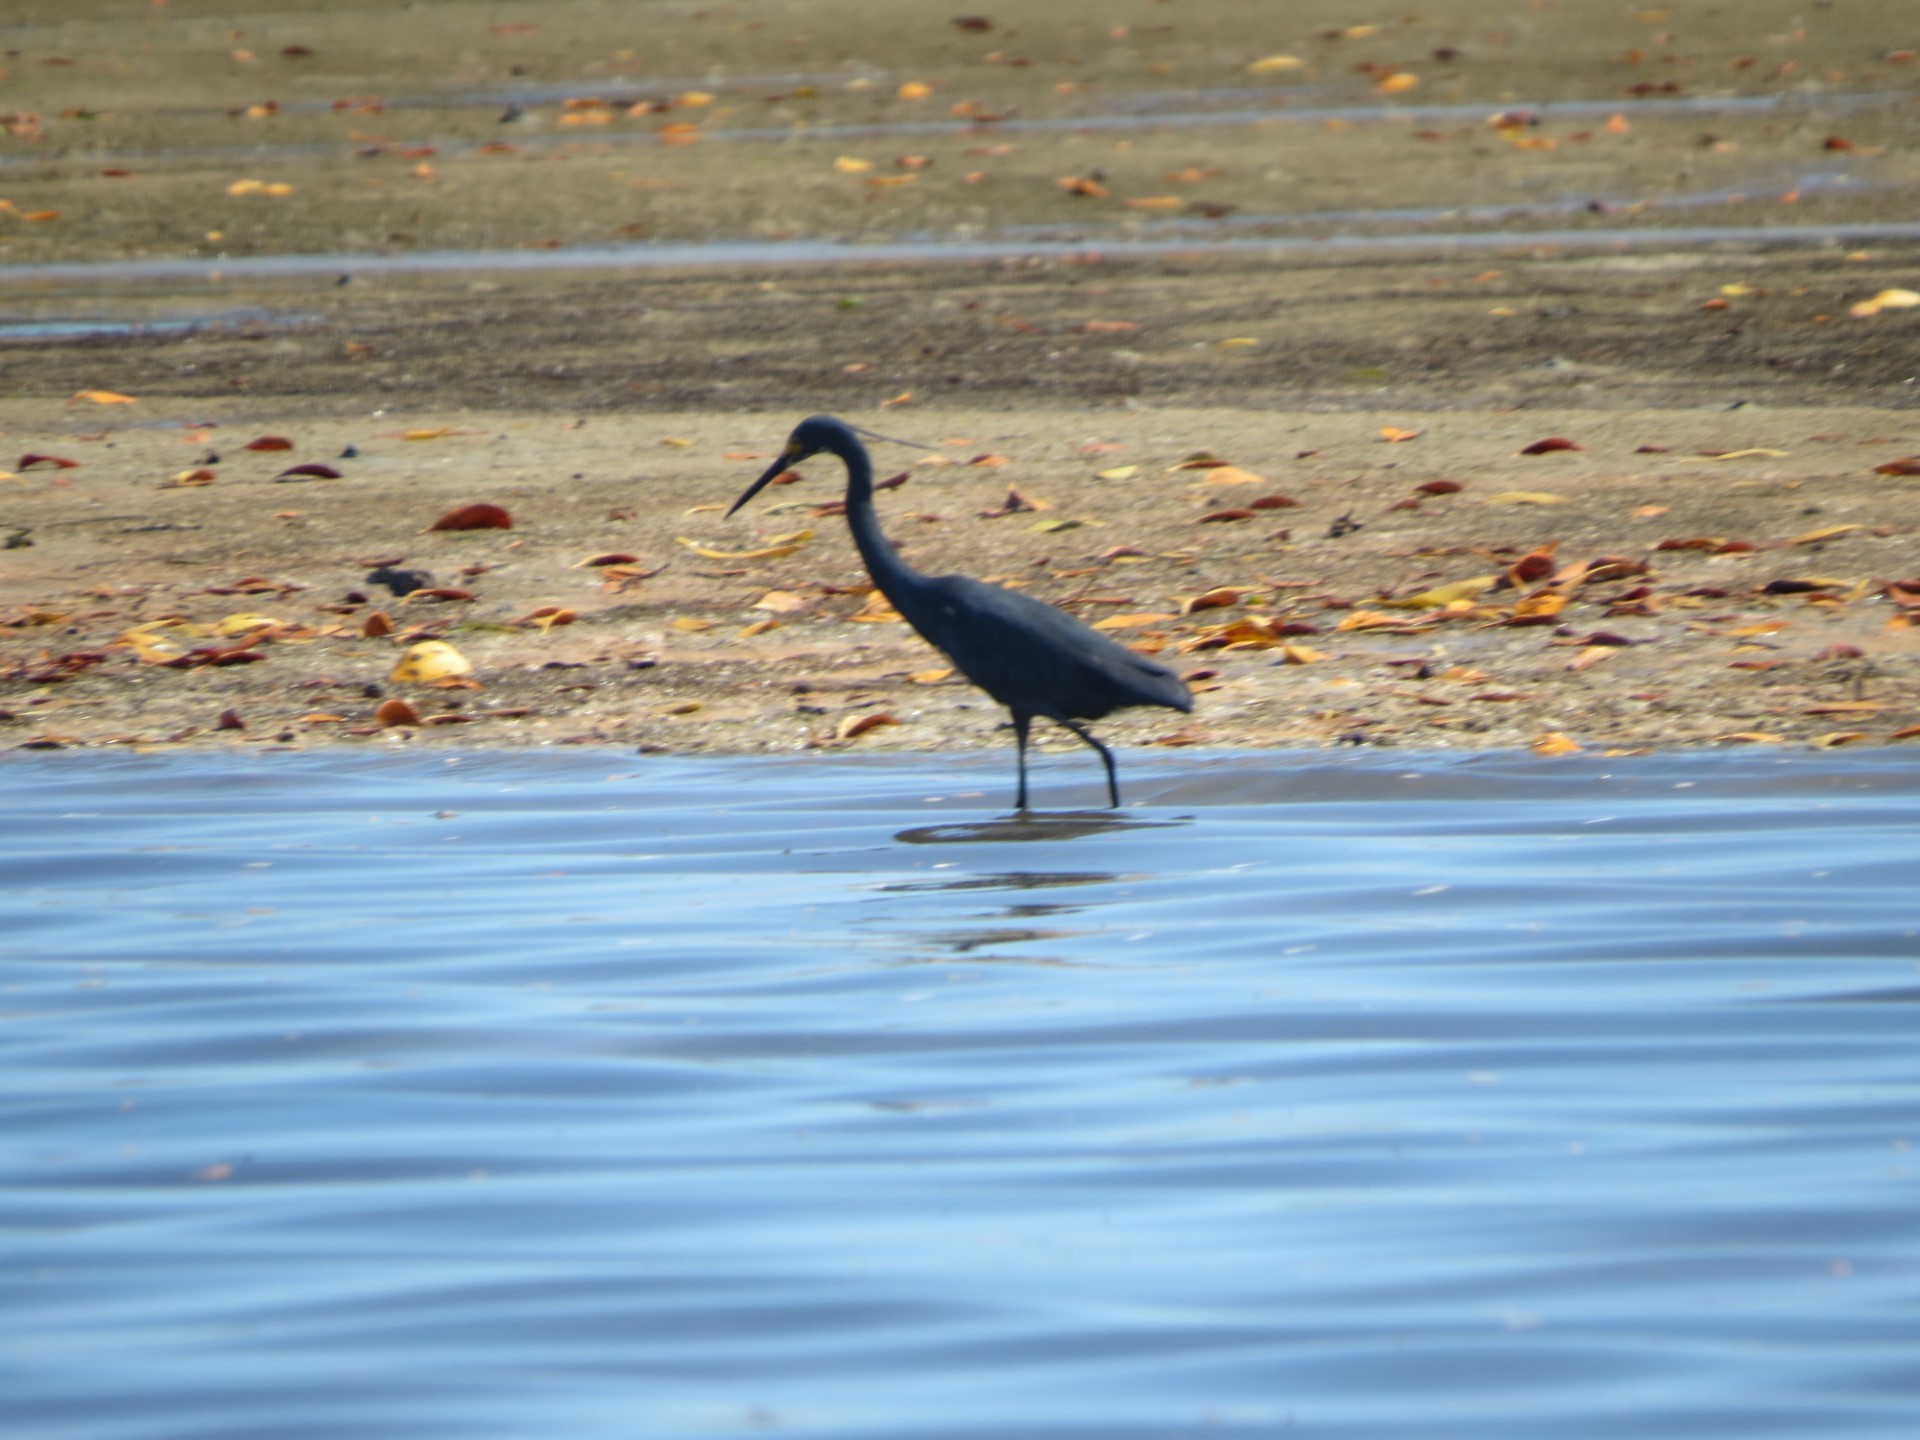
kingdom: Animalia
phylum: Chordata
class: Aves
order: Pelecaniformes
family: Ardeidae
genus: Egretta
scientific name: Egretta dimorpha
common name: Dimorphic egret
